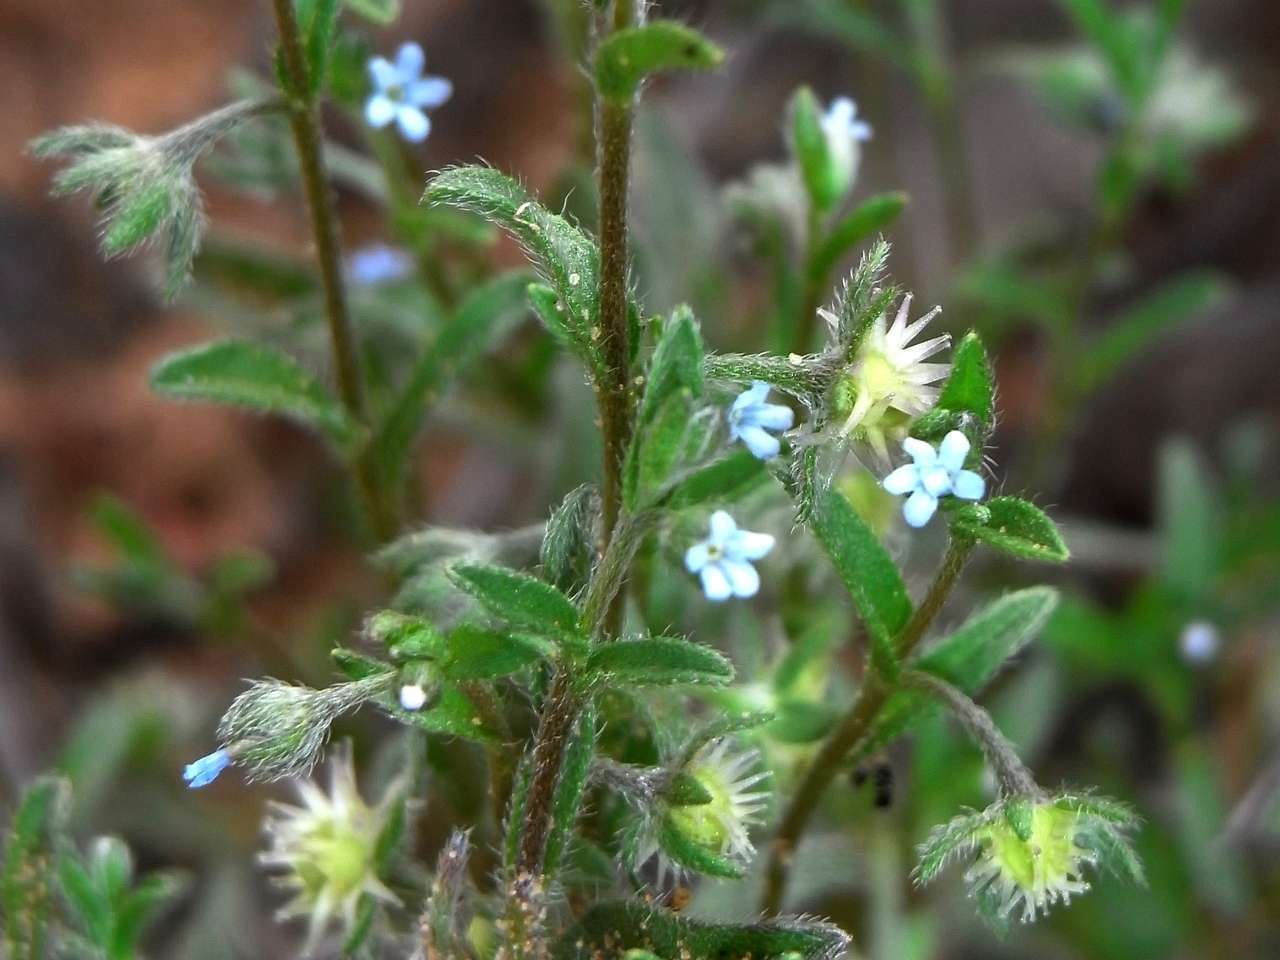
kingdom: Plantae
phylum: Tracheophyta
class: Magnoliopsida
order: Boraginales
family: Boraginaceae
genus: Omphalolappula
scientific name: Omphalolappula concava
